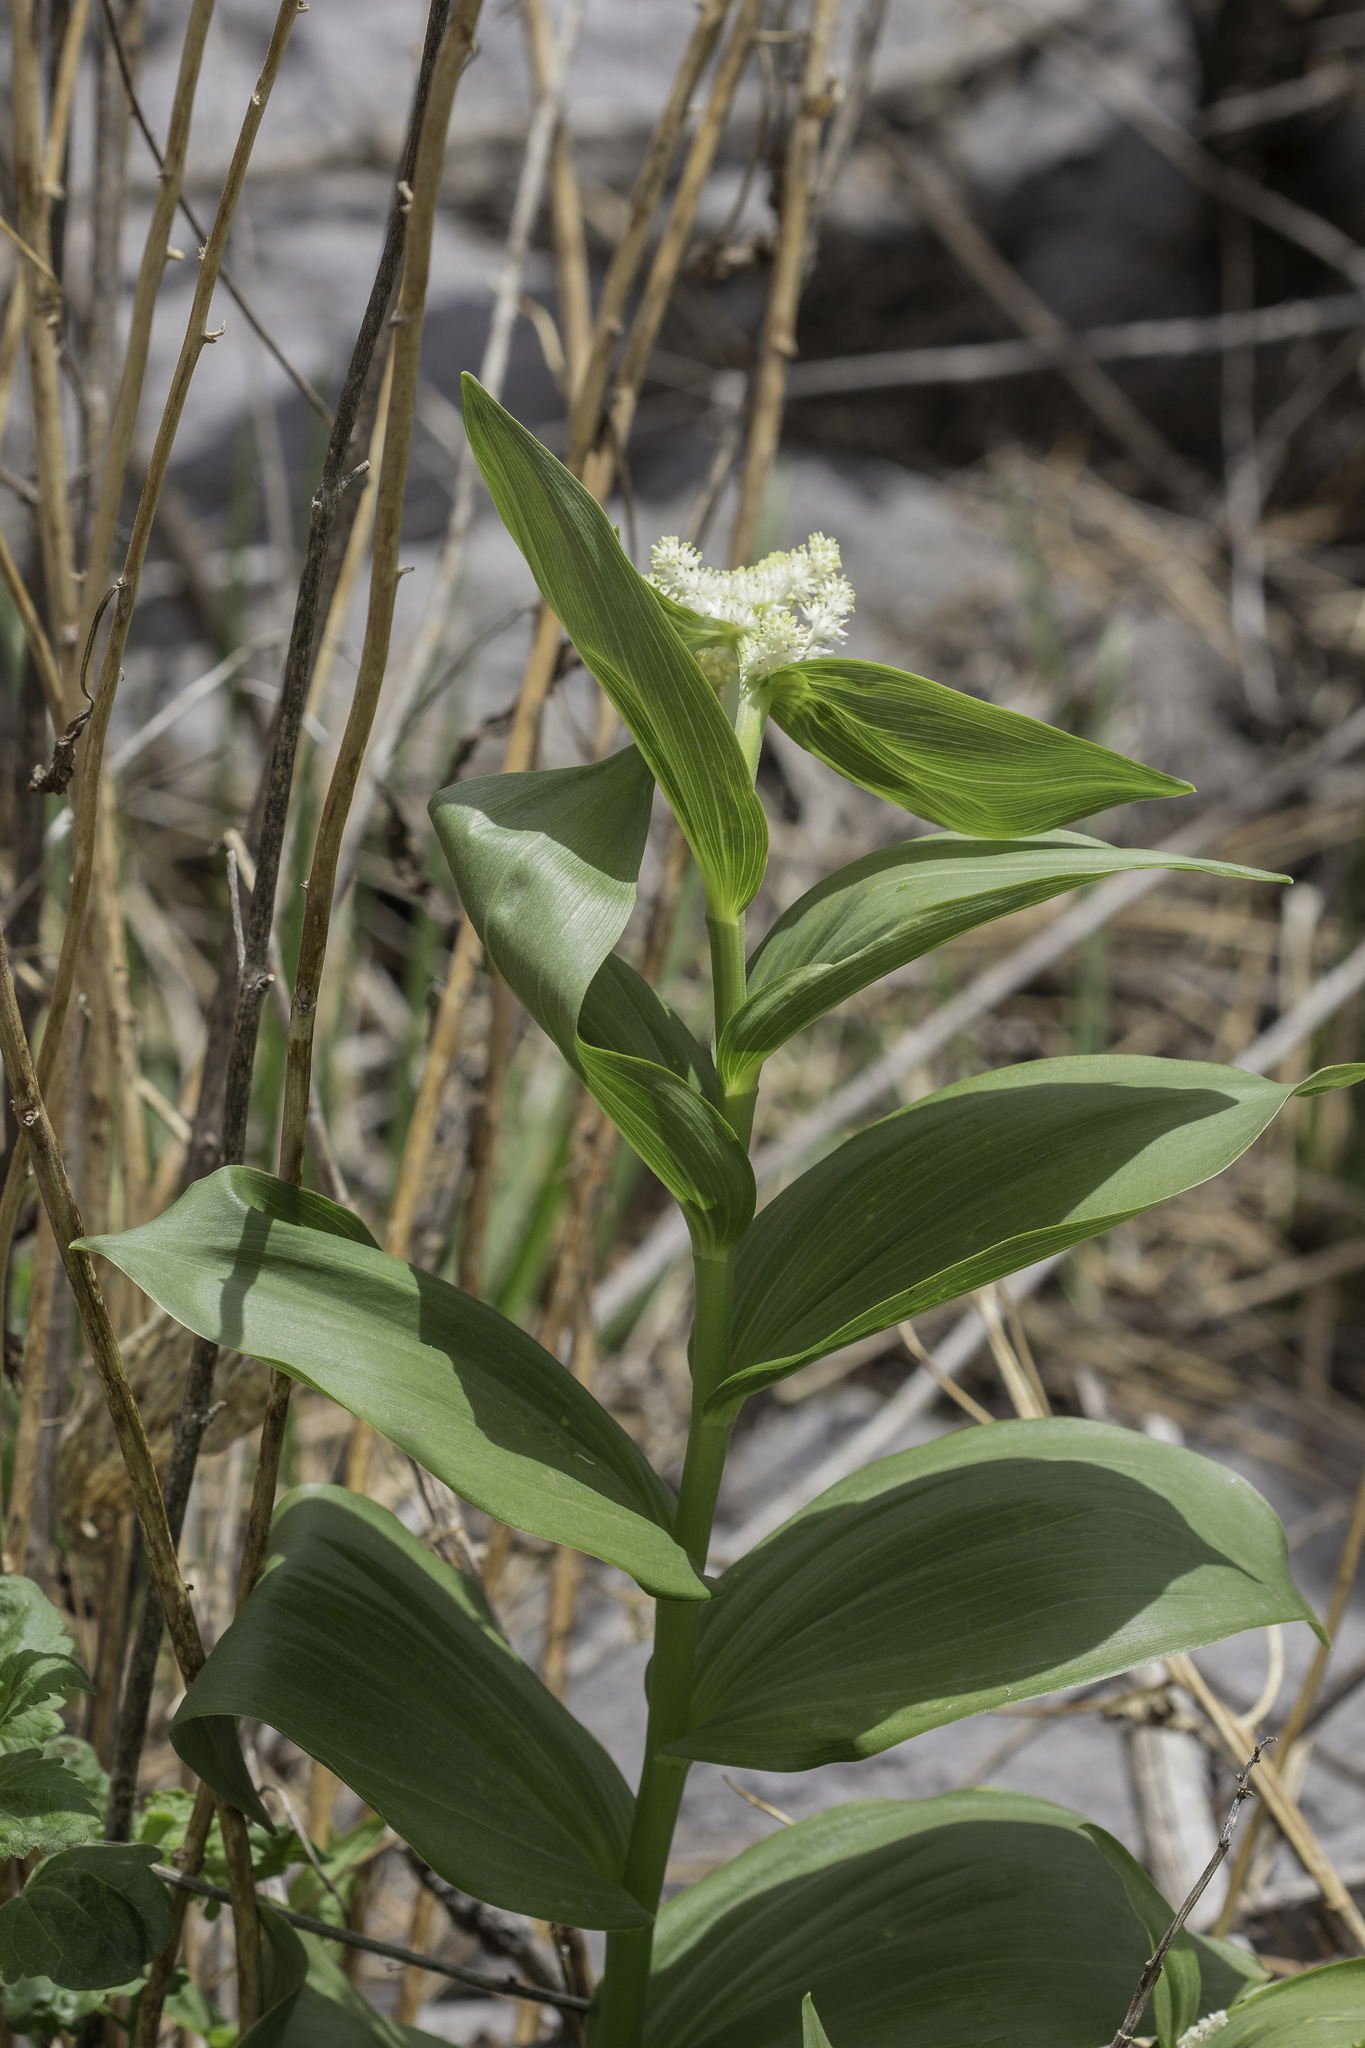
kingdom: Plantae
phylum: Tracheophyta
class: Liliopsida
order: Asparagales
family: Asparagaceae
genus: Maianthemum
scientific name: Maianthemum racemosum
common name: False spikenard
